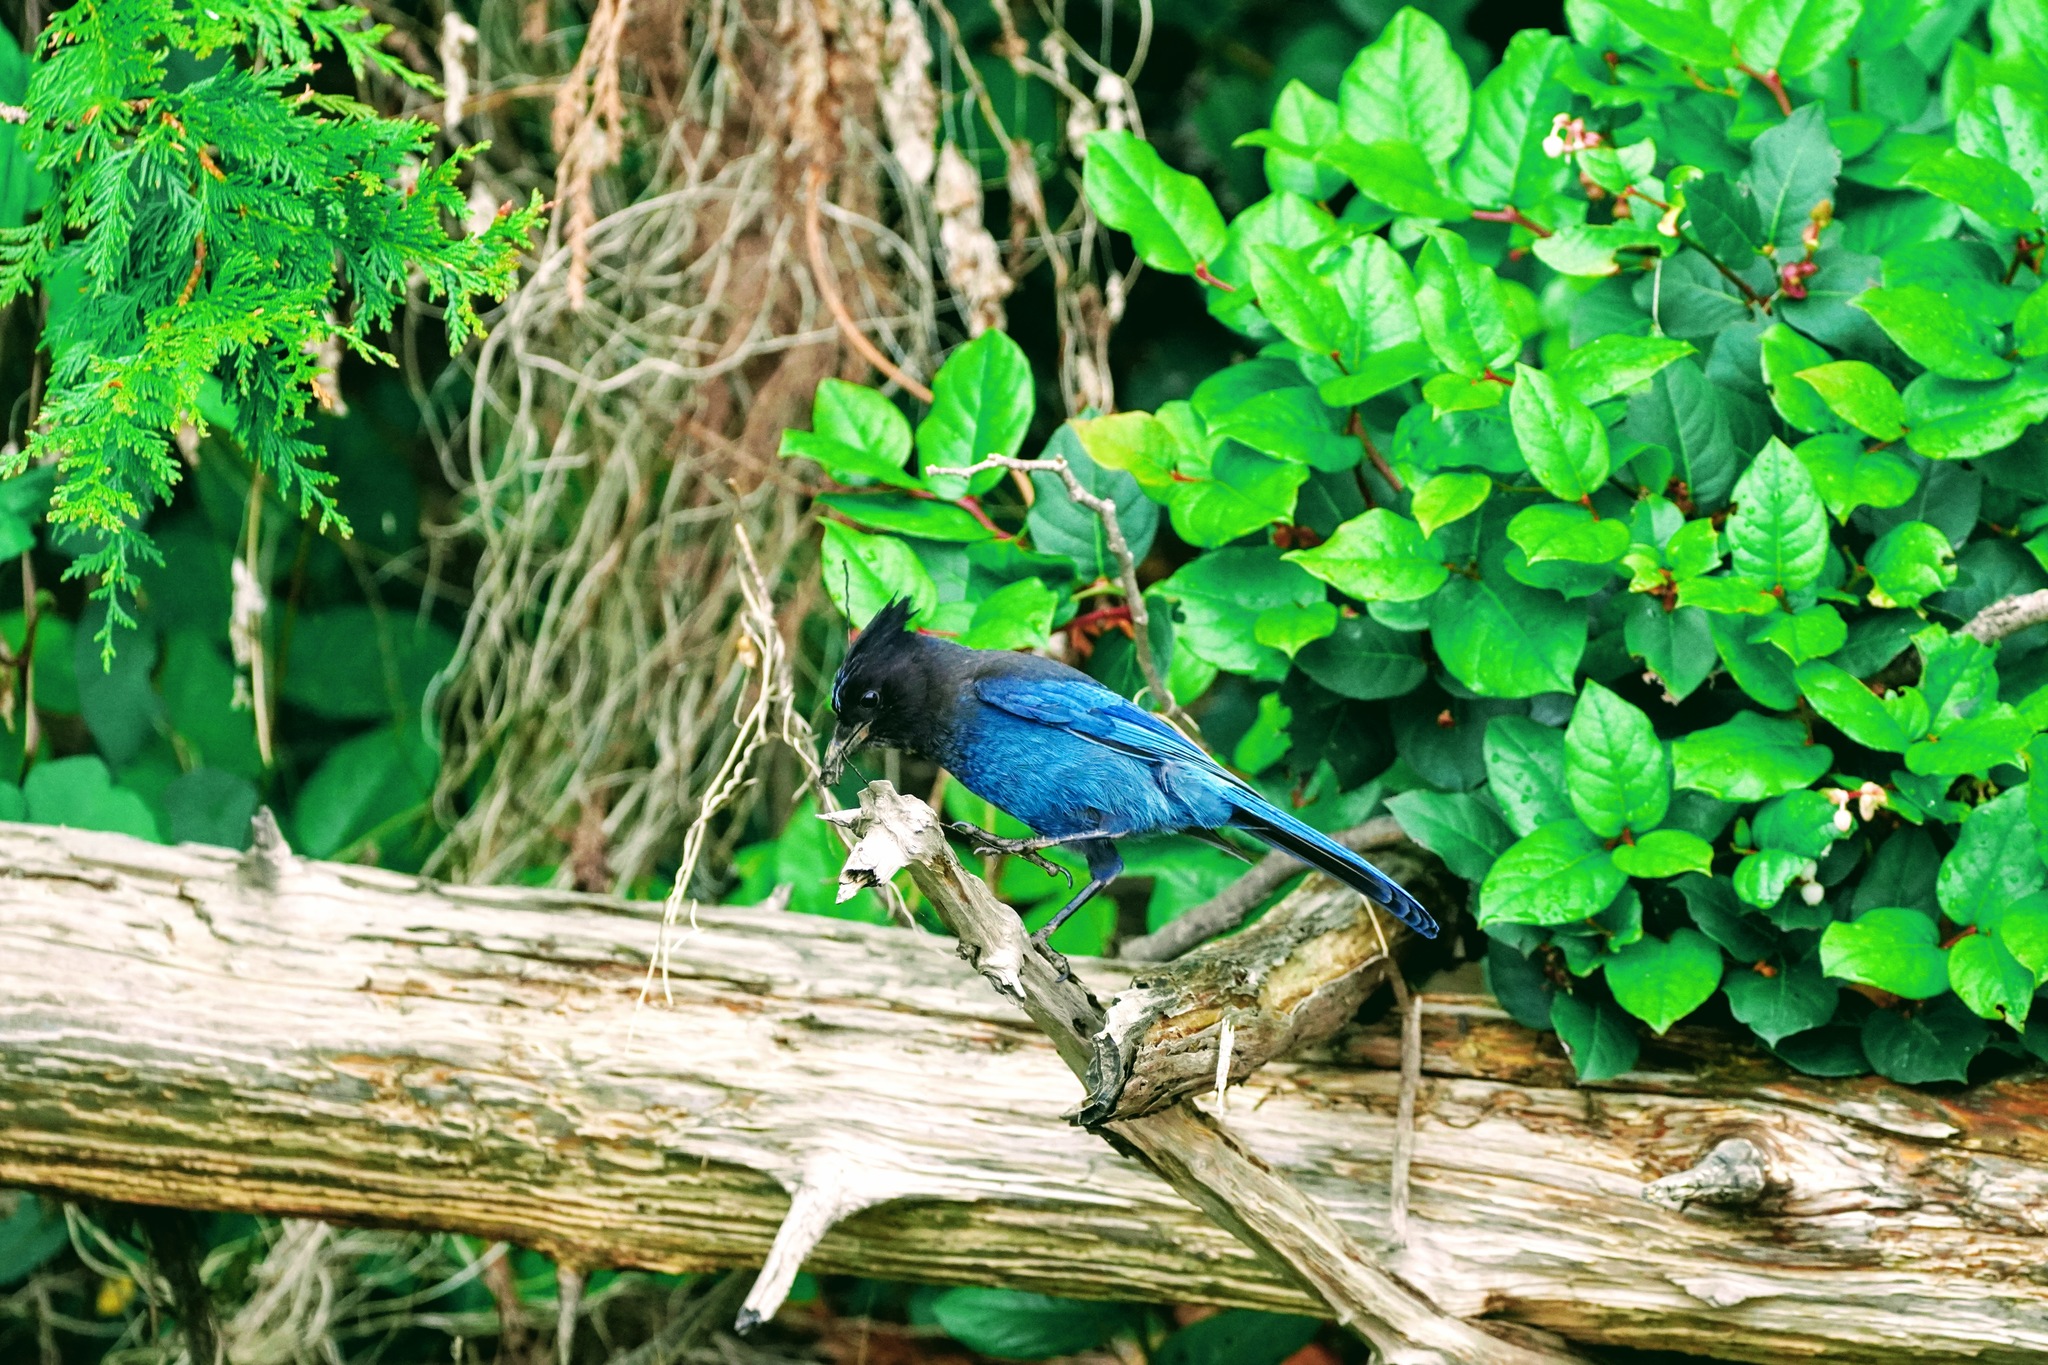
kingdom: Animalia
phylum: Chordata
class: Aves
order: Passeriformes
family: Corvidae
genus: Cyanocitta
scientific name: Cyanocitta stelleri
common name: Steller's jay
